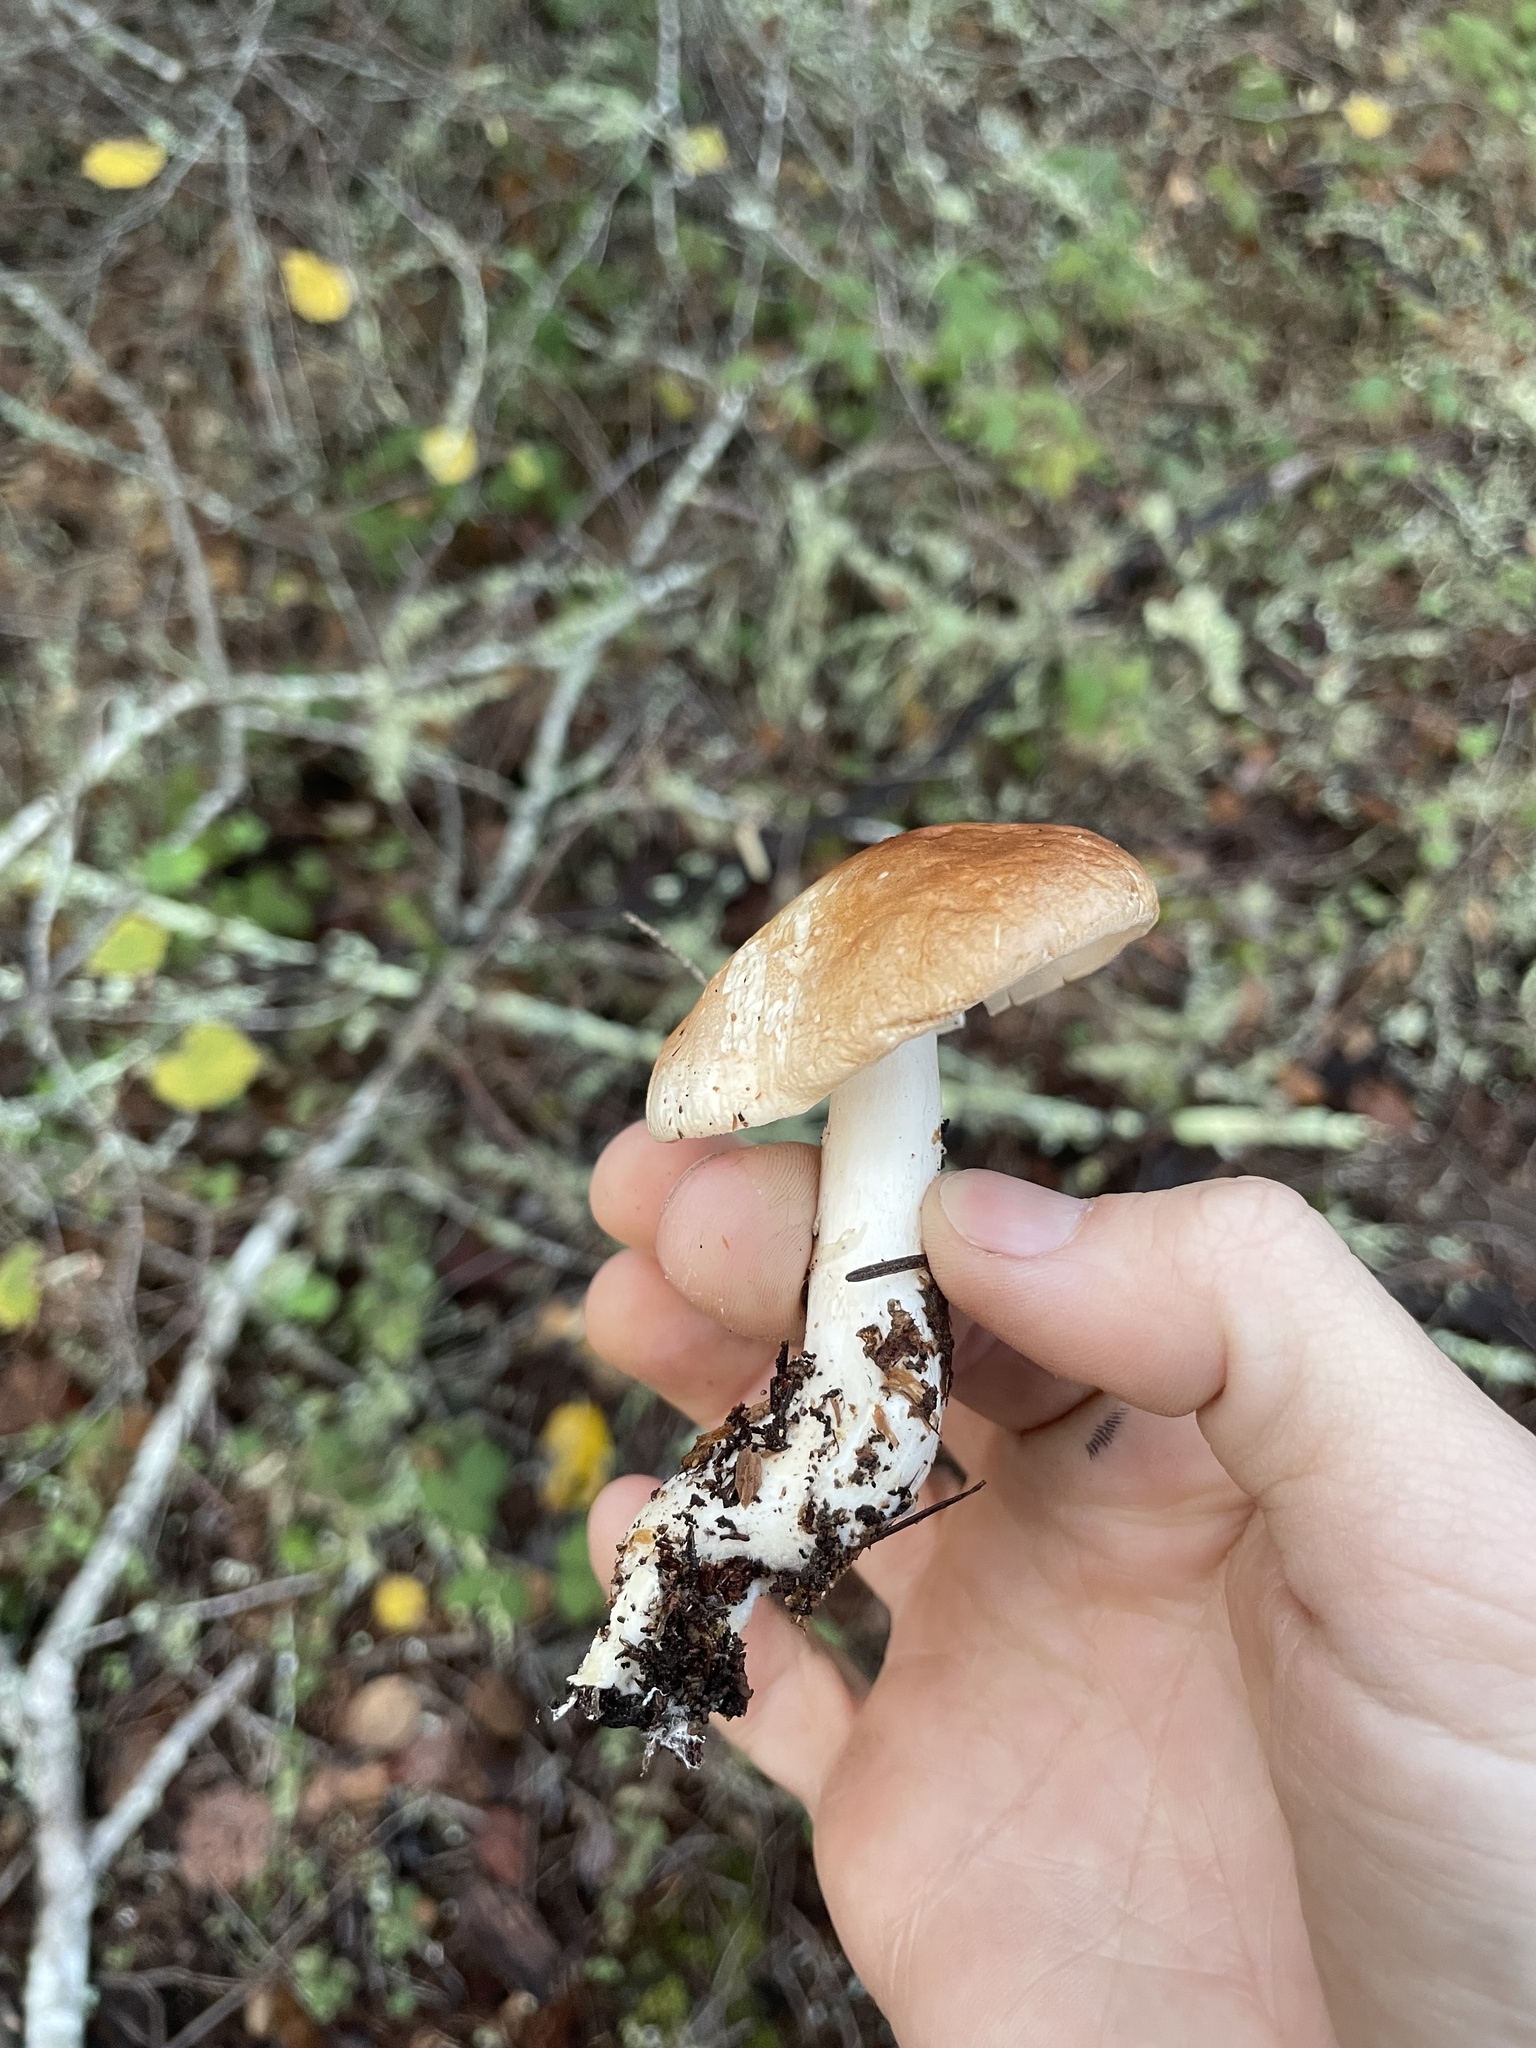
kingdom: Fungi
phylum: Basidiomycota
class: Agaricomycetes
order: Agaricales
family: Tricholomataceae
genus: Leucopaxillus
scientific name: Leucopaxillus gentianeus
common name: Bitter funnel
